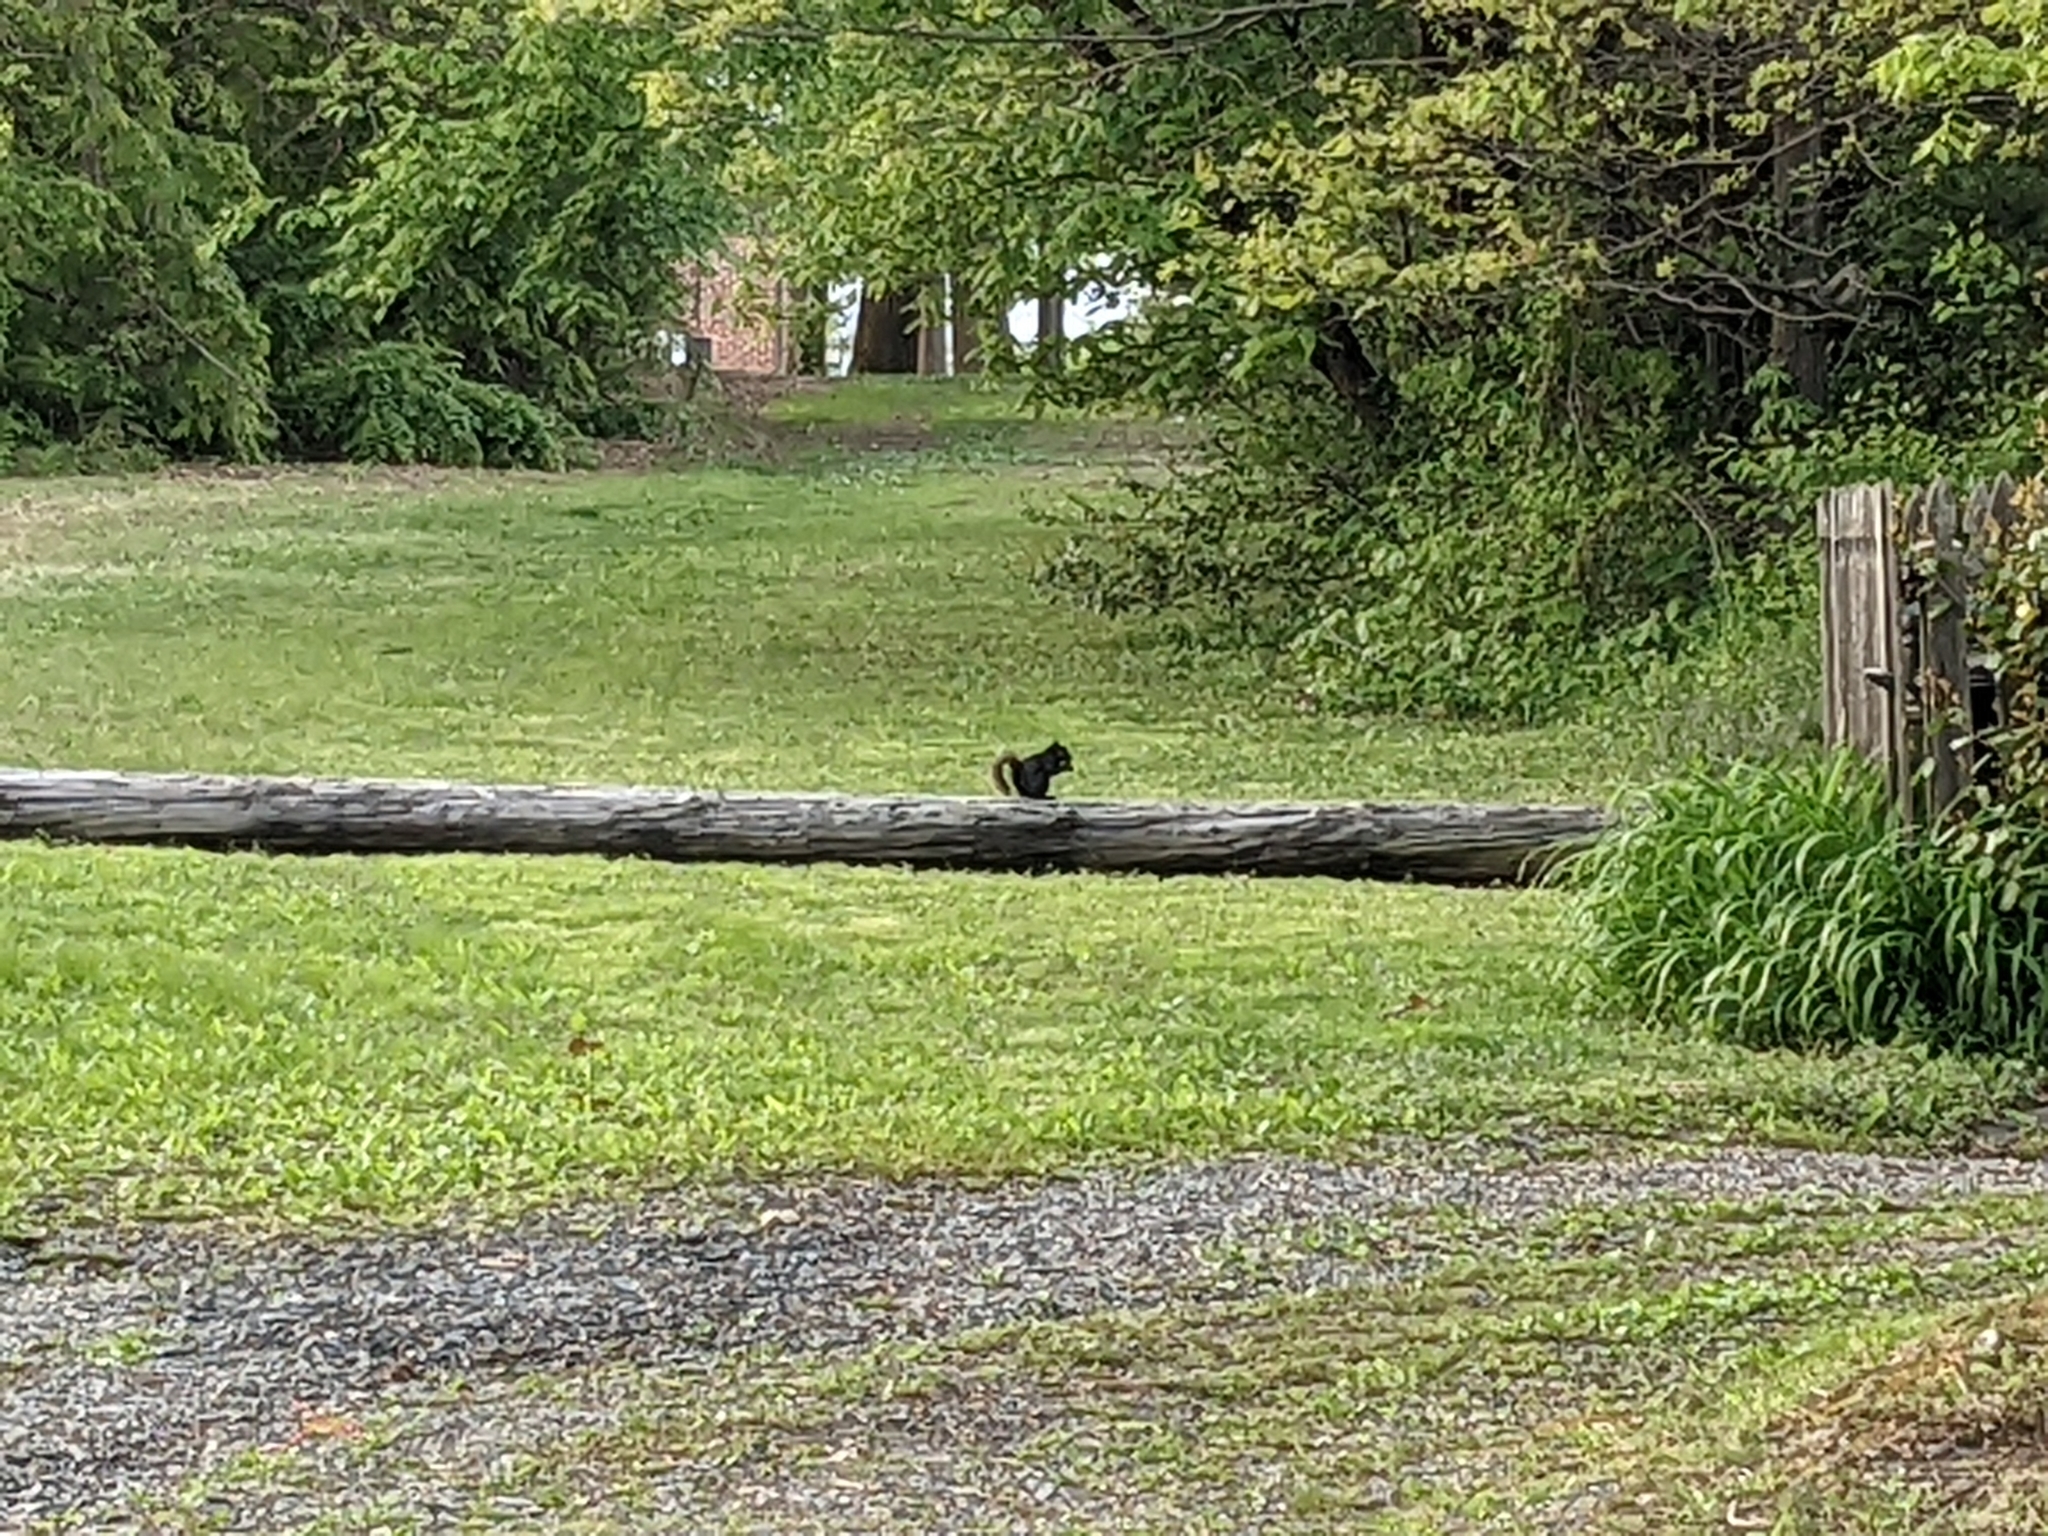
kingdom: Animalia
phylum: Chordata
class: Mammalia
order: Rodentia
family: Sciuridae
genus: Sciurus
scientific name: Sciurus carolinensis
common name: Eastern gray squirrel
